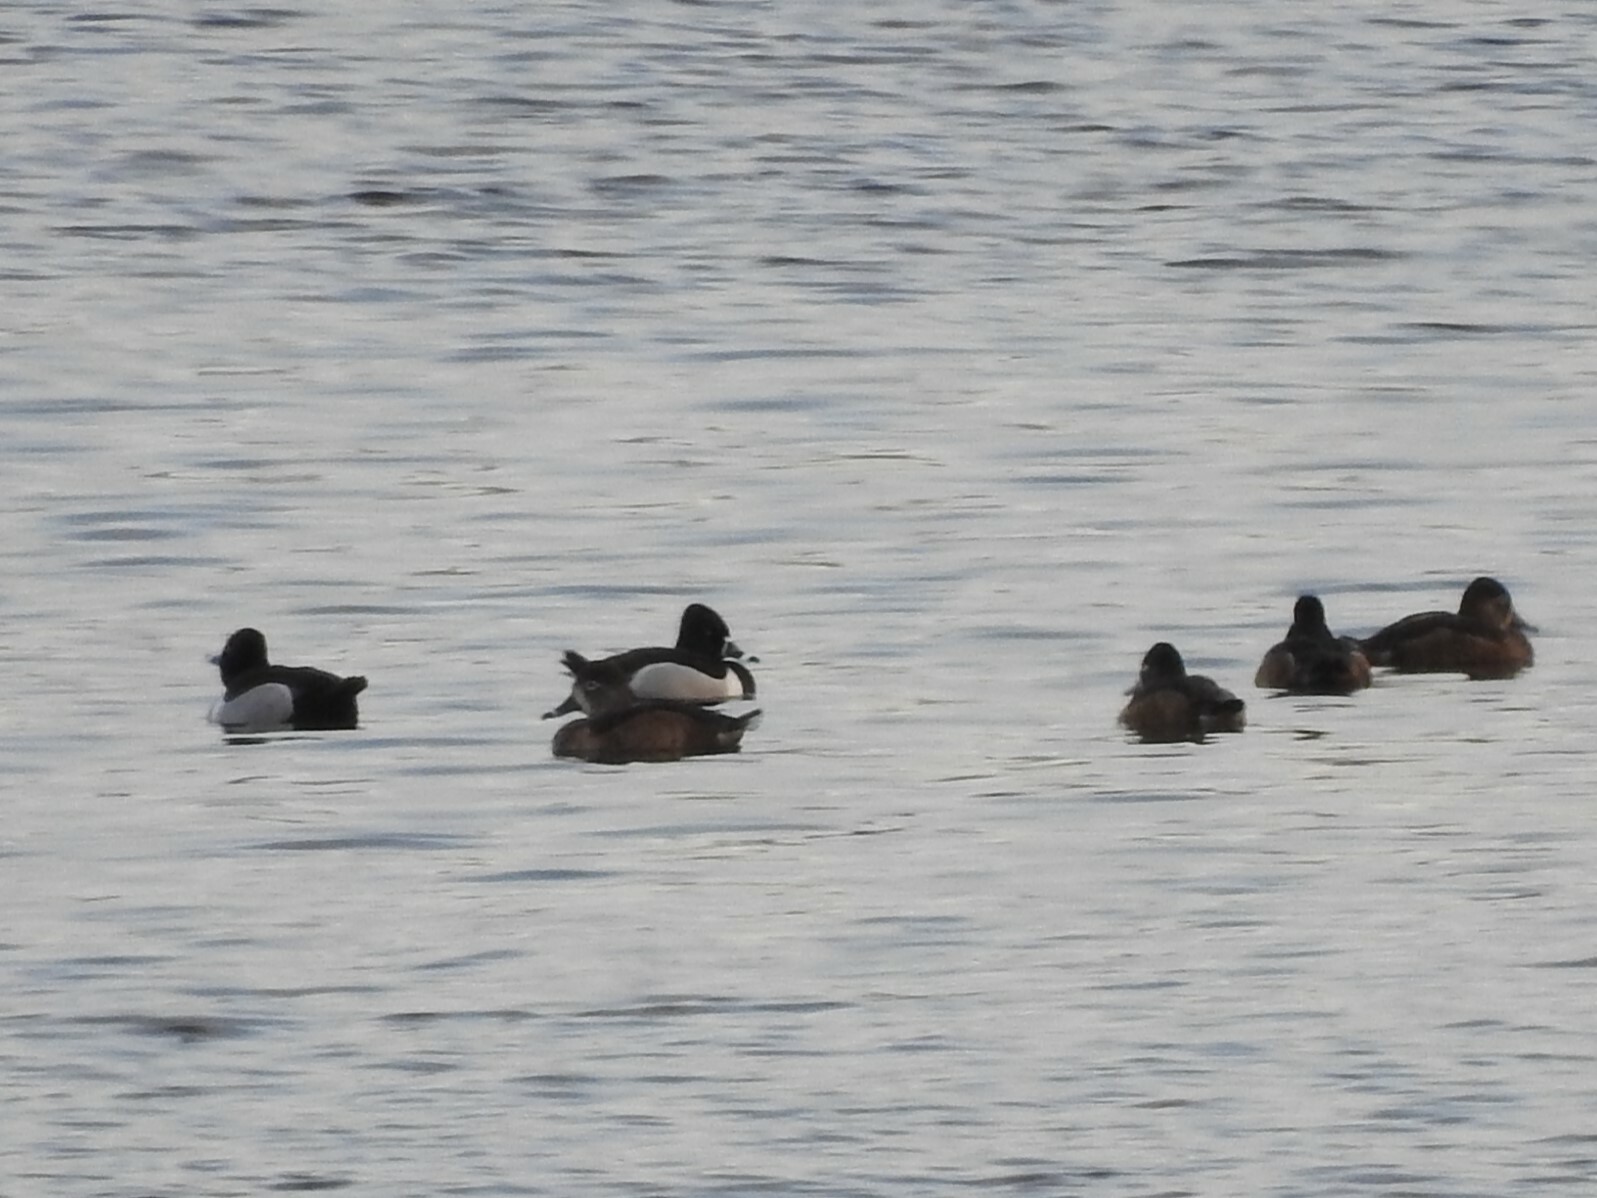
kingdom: Animalia
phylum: Chordata
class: Aves
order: Anseriformes
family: Anatidae
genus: Aythya
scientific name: Aythya collaris
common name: Ring-necked duck
